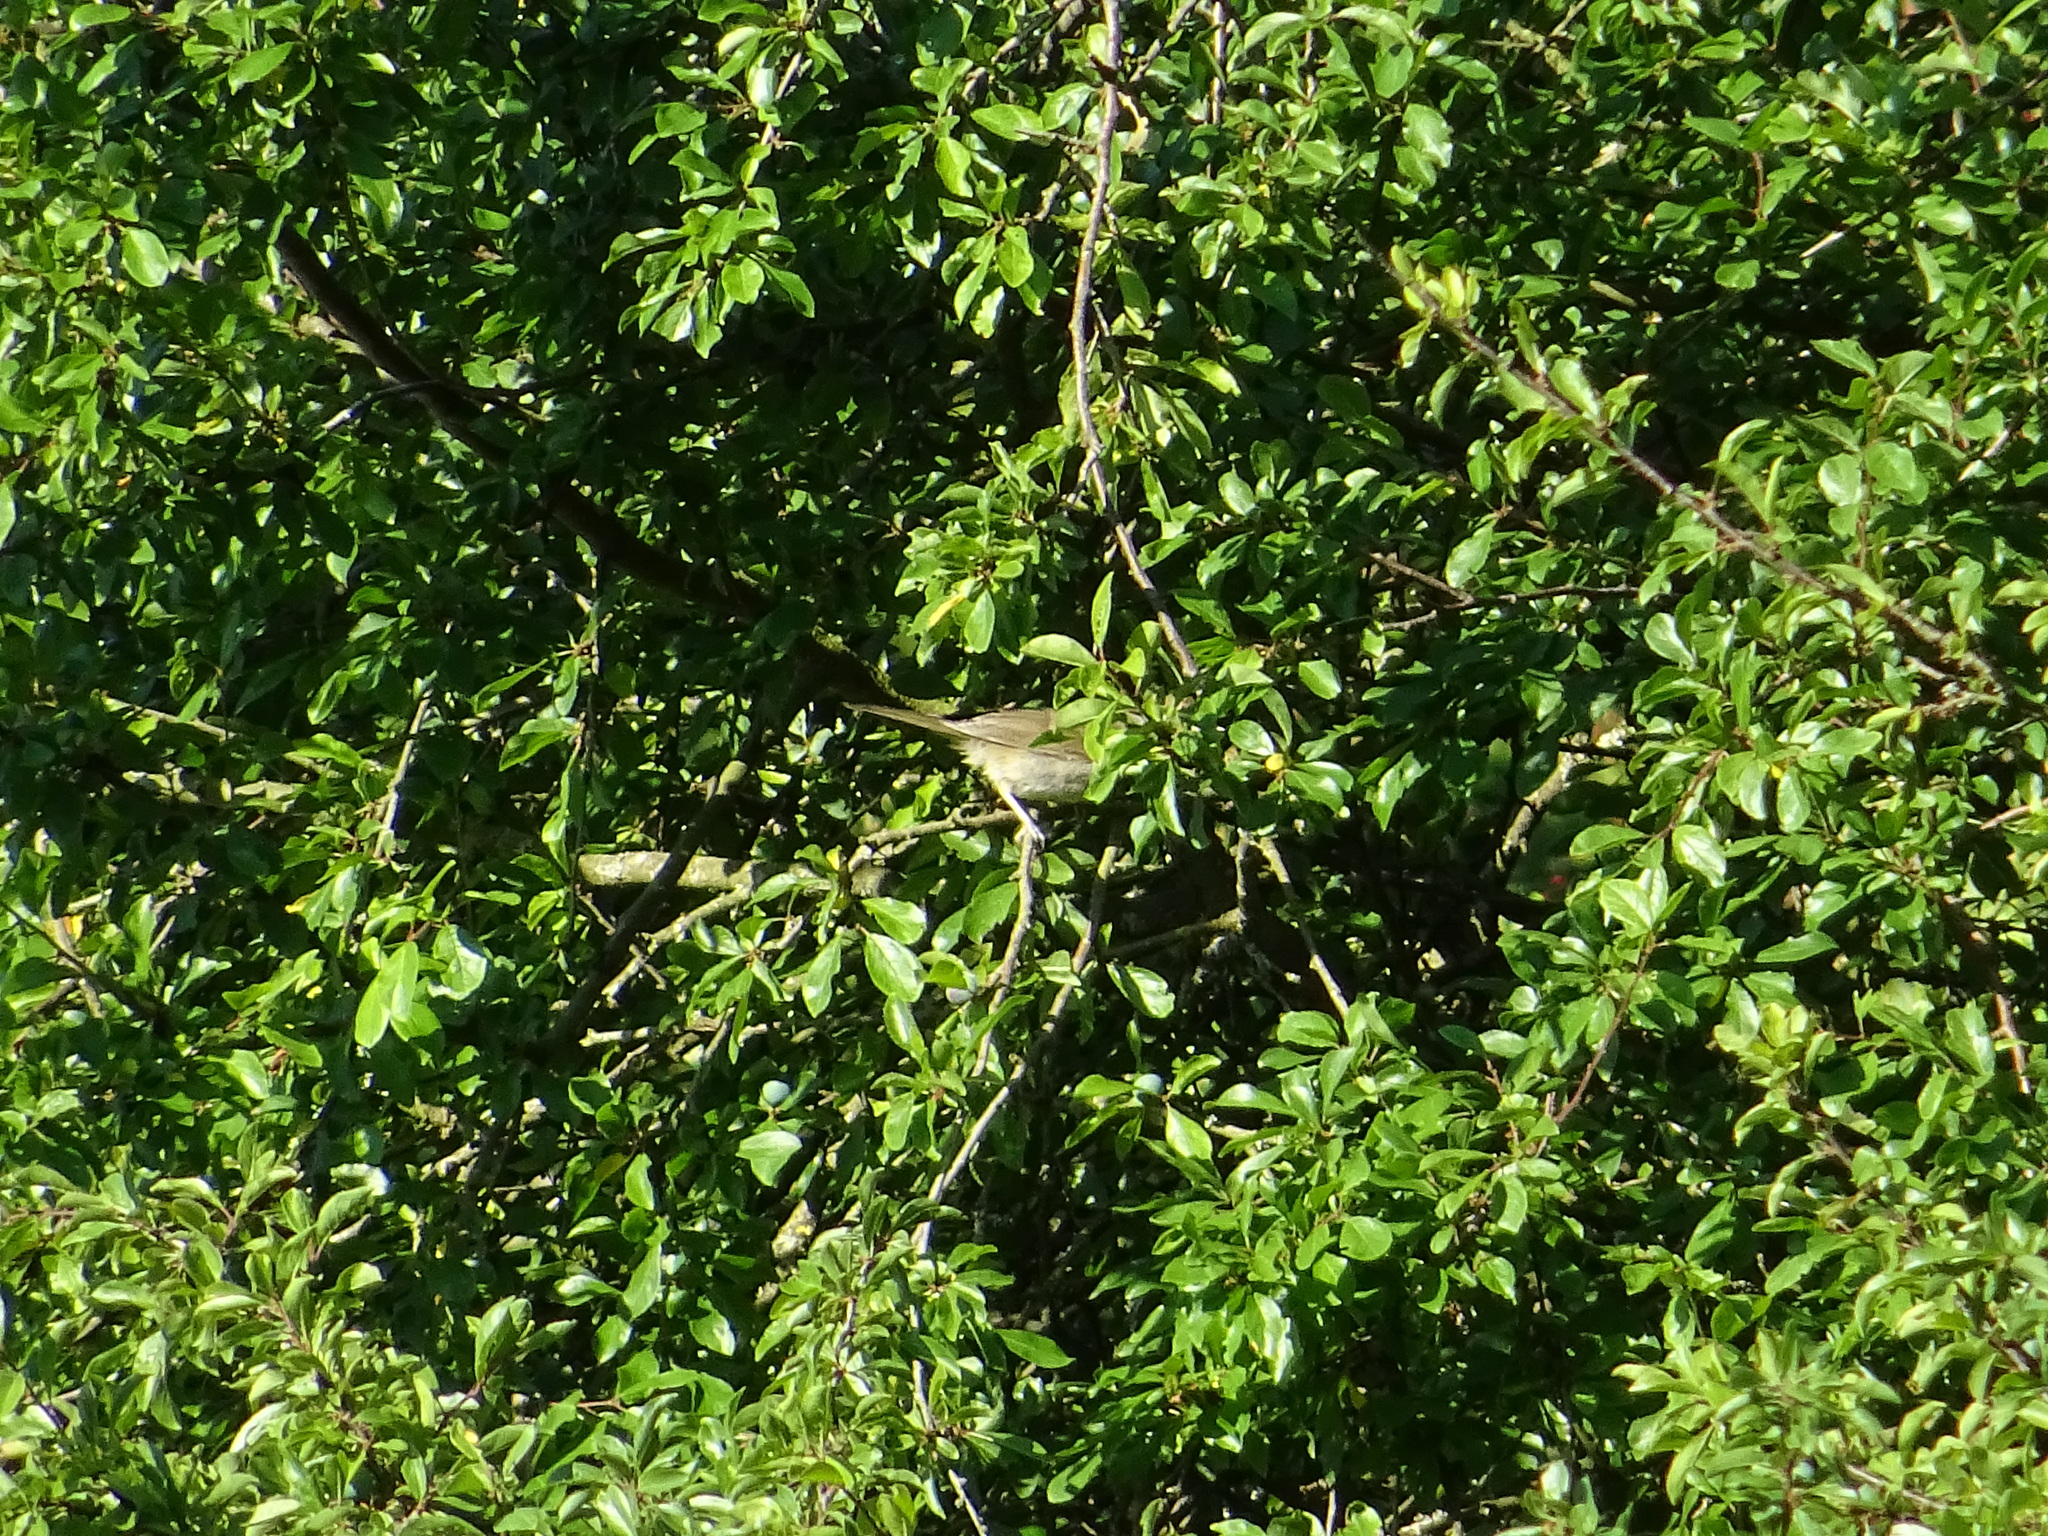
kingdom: Animalia
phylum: Chordata
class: Aves
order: Passeriformes
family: Sylviidae
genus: Sylvia
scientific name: Sylvia atricapilla
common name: Eurasian blackcap
